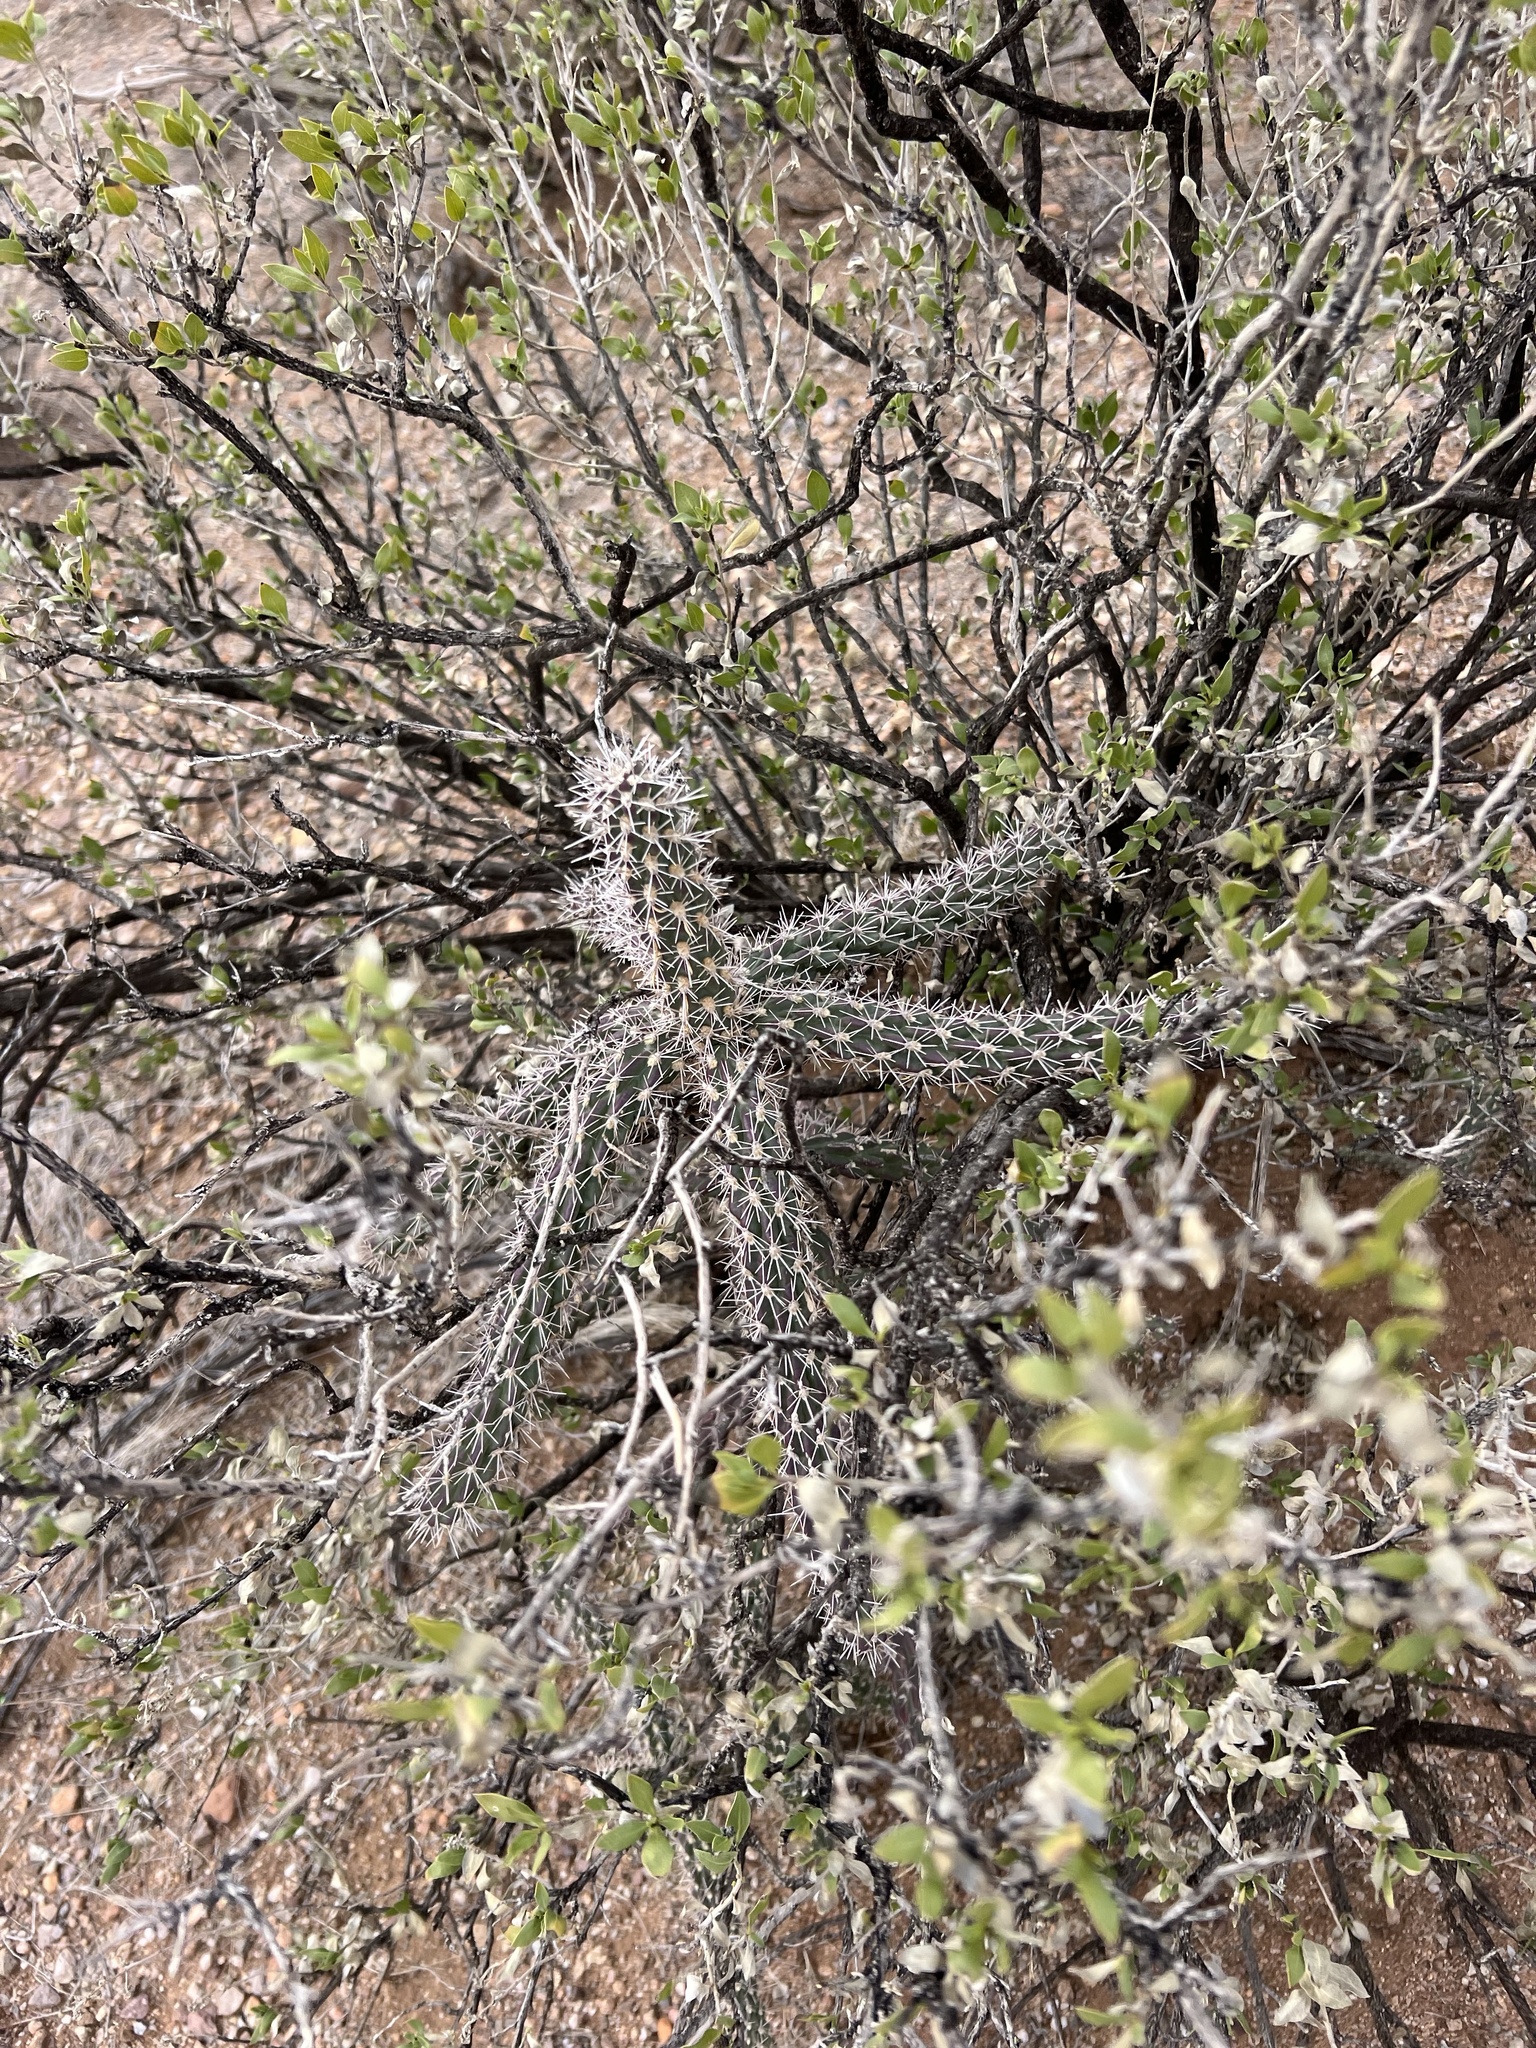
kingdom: Plantae
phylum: Tracheophyta
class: Magnoliopsida
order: Caryophyllales
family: Cactaceae
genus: Cylindropuntia
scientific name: Cylindropuntia imbricata
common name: Candelabrum cactus
